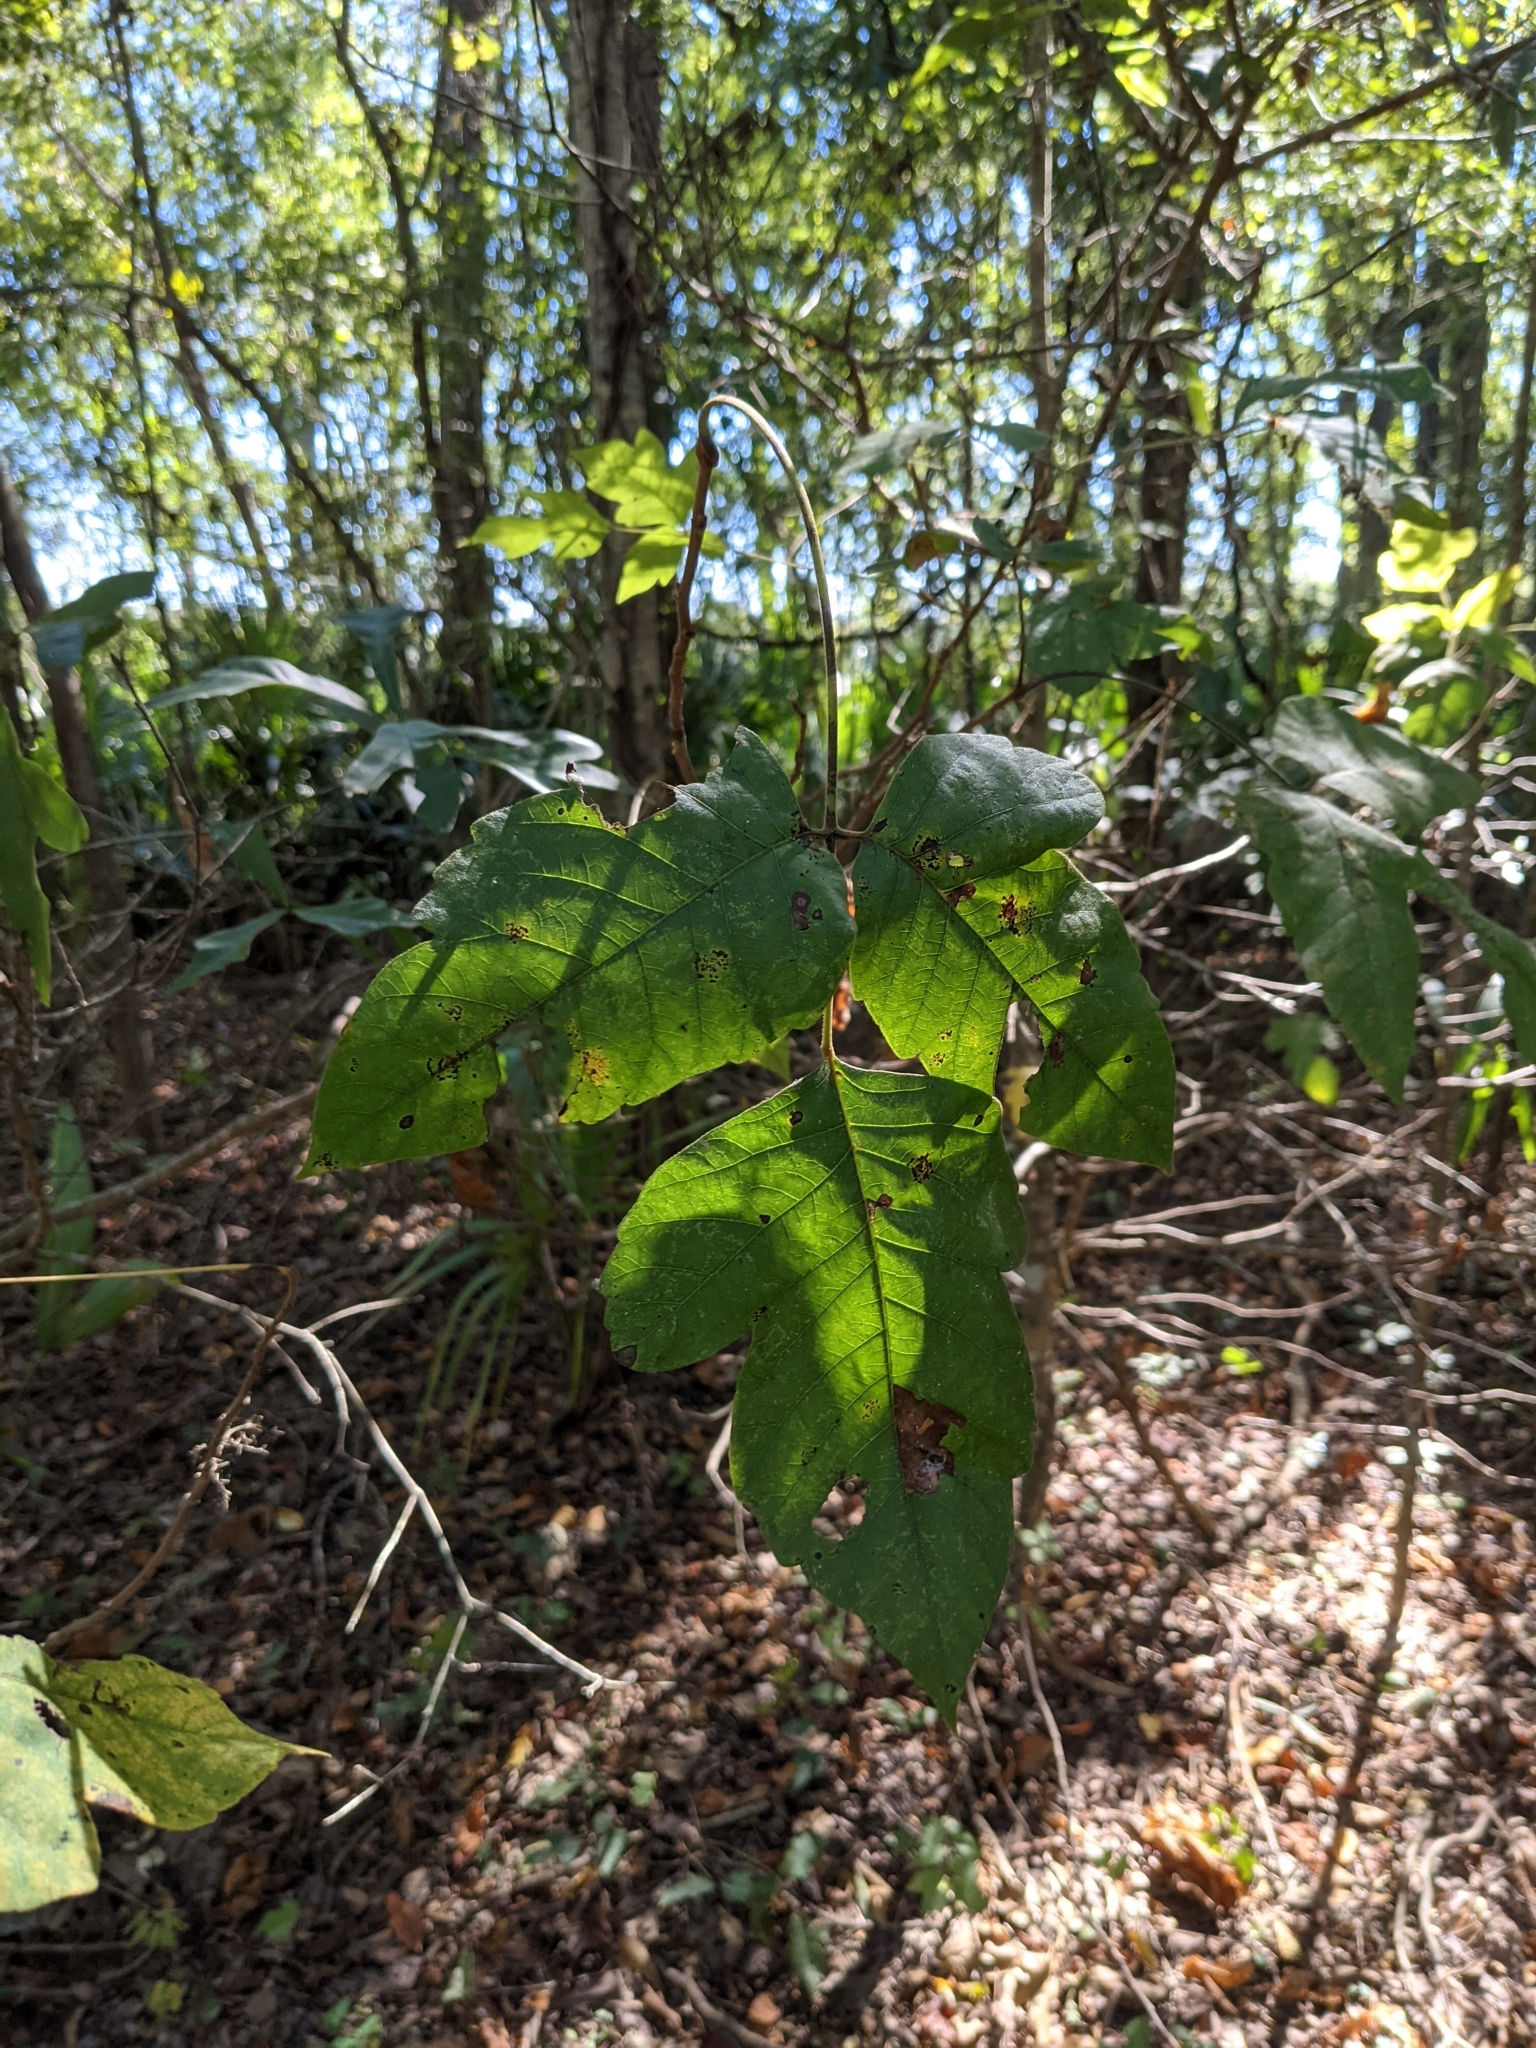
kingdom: Plantae
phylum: Tracheophyta
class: Magnoliopsida
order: Sapindales
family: Anacardiaceae
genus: Toxicodendron
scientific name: Toxicodendron radicans
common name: Poison ivy
